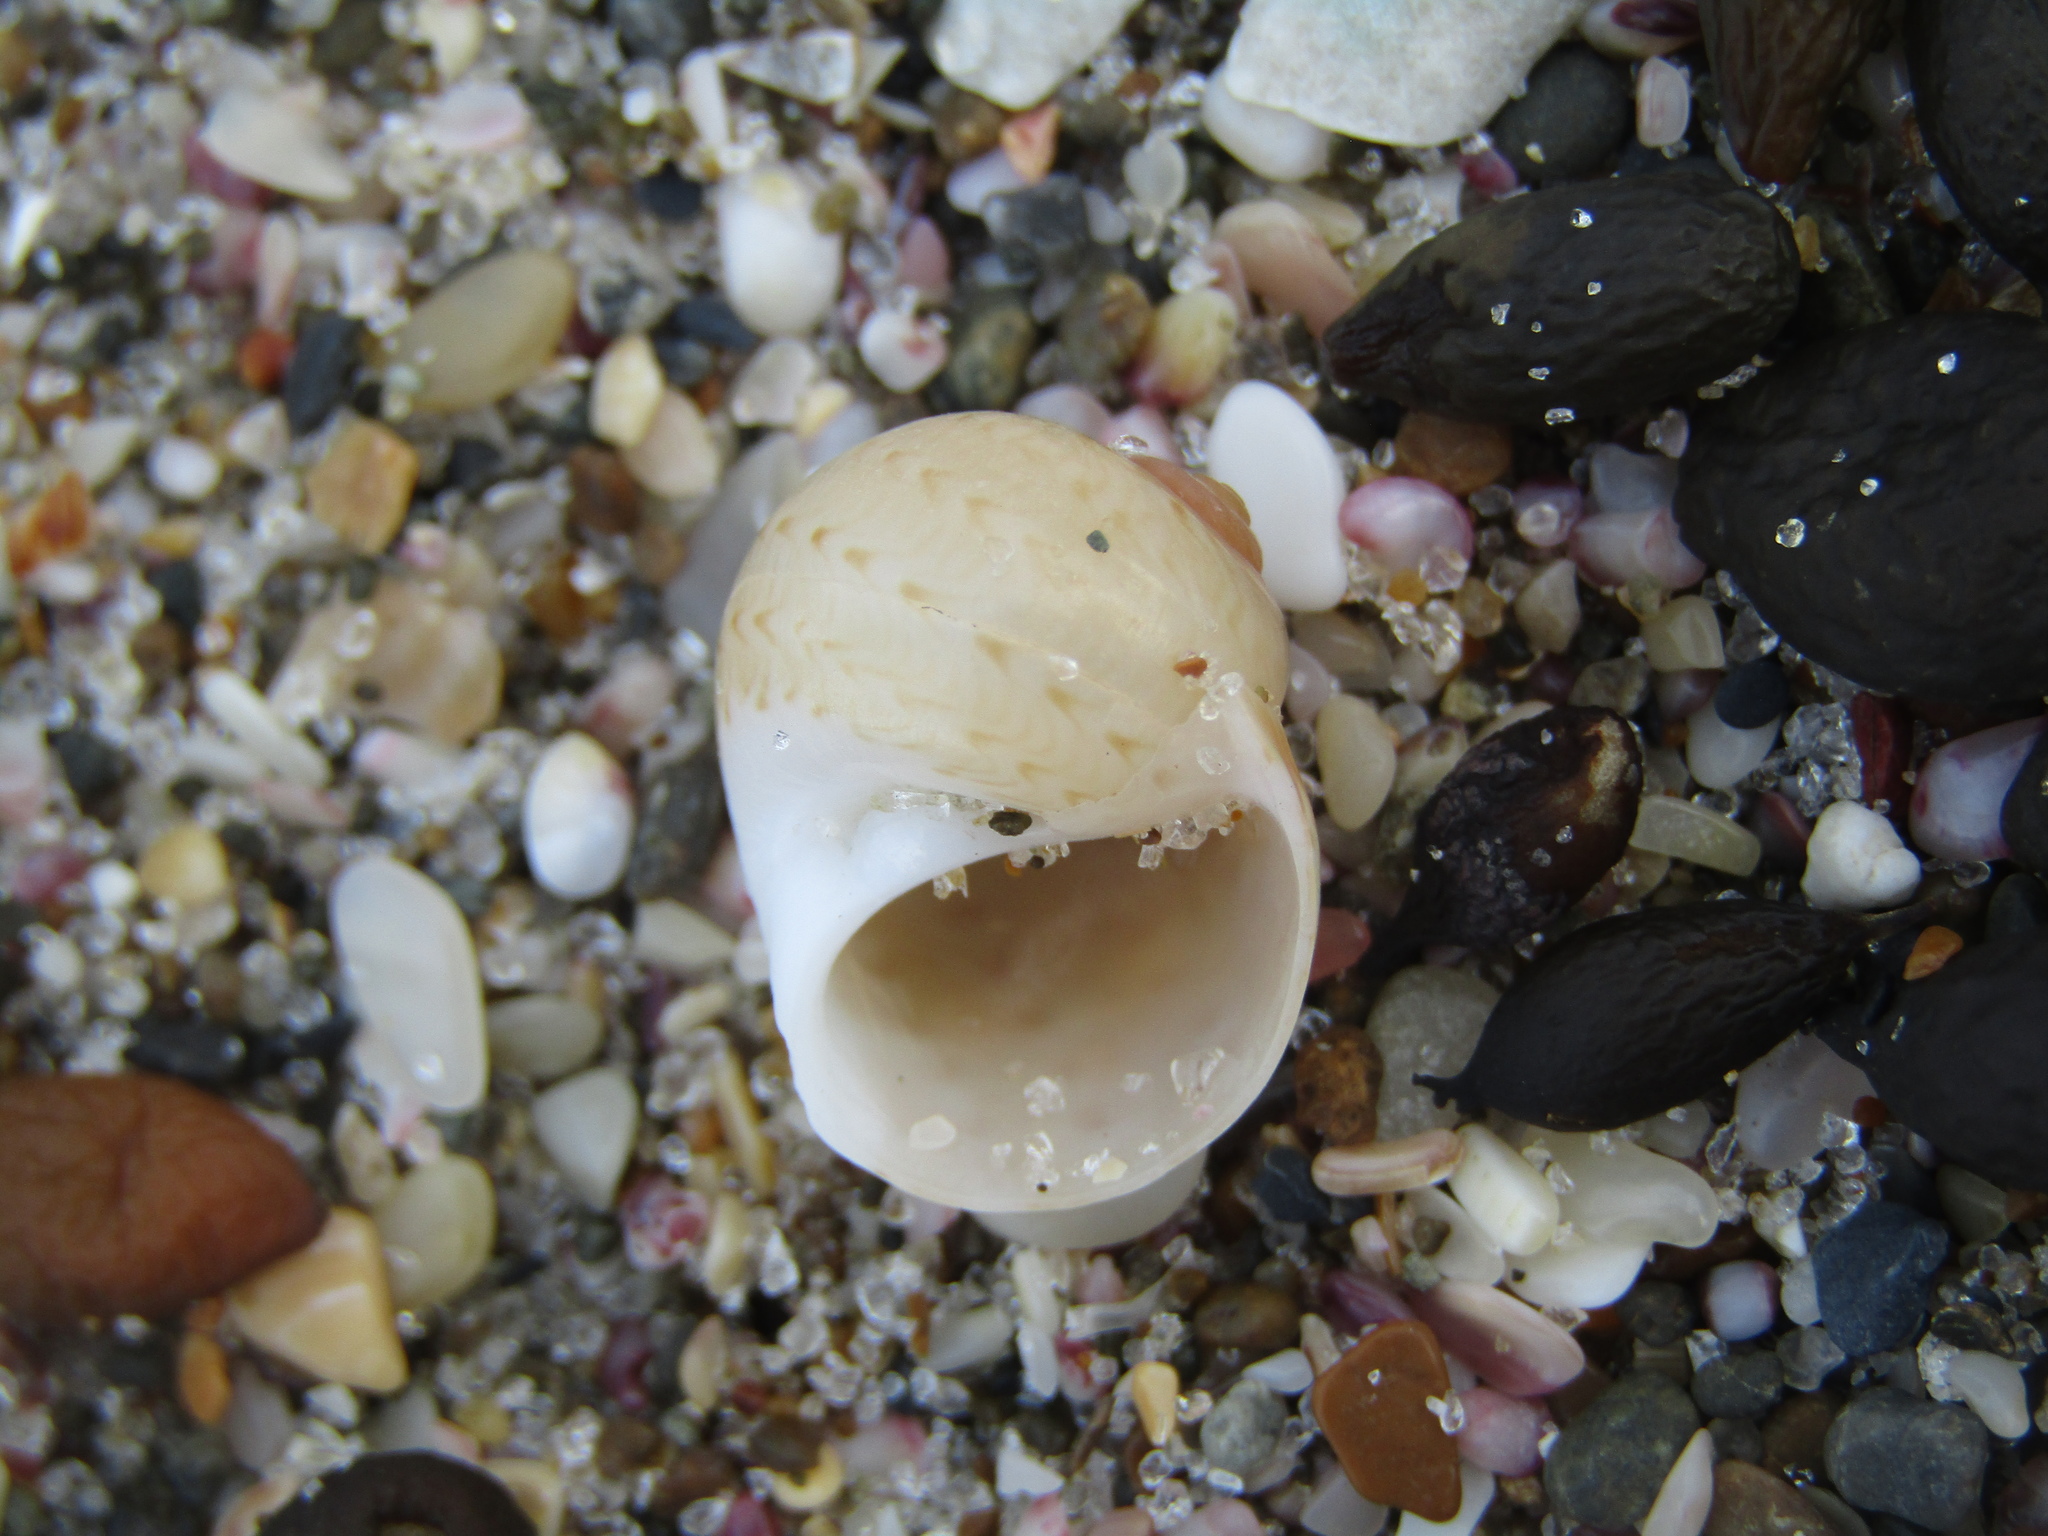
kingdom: Animalia
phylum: Mollusca
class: Gastropoda
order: Littorinimorpha
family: Naticidae
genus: Tanea
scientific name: Tanea zelandica
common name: New zealand moonsnail
